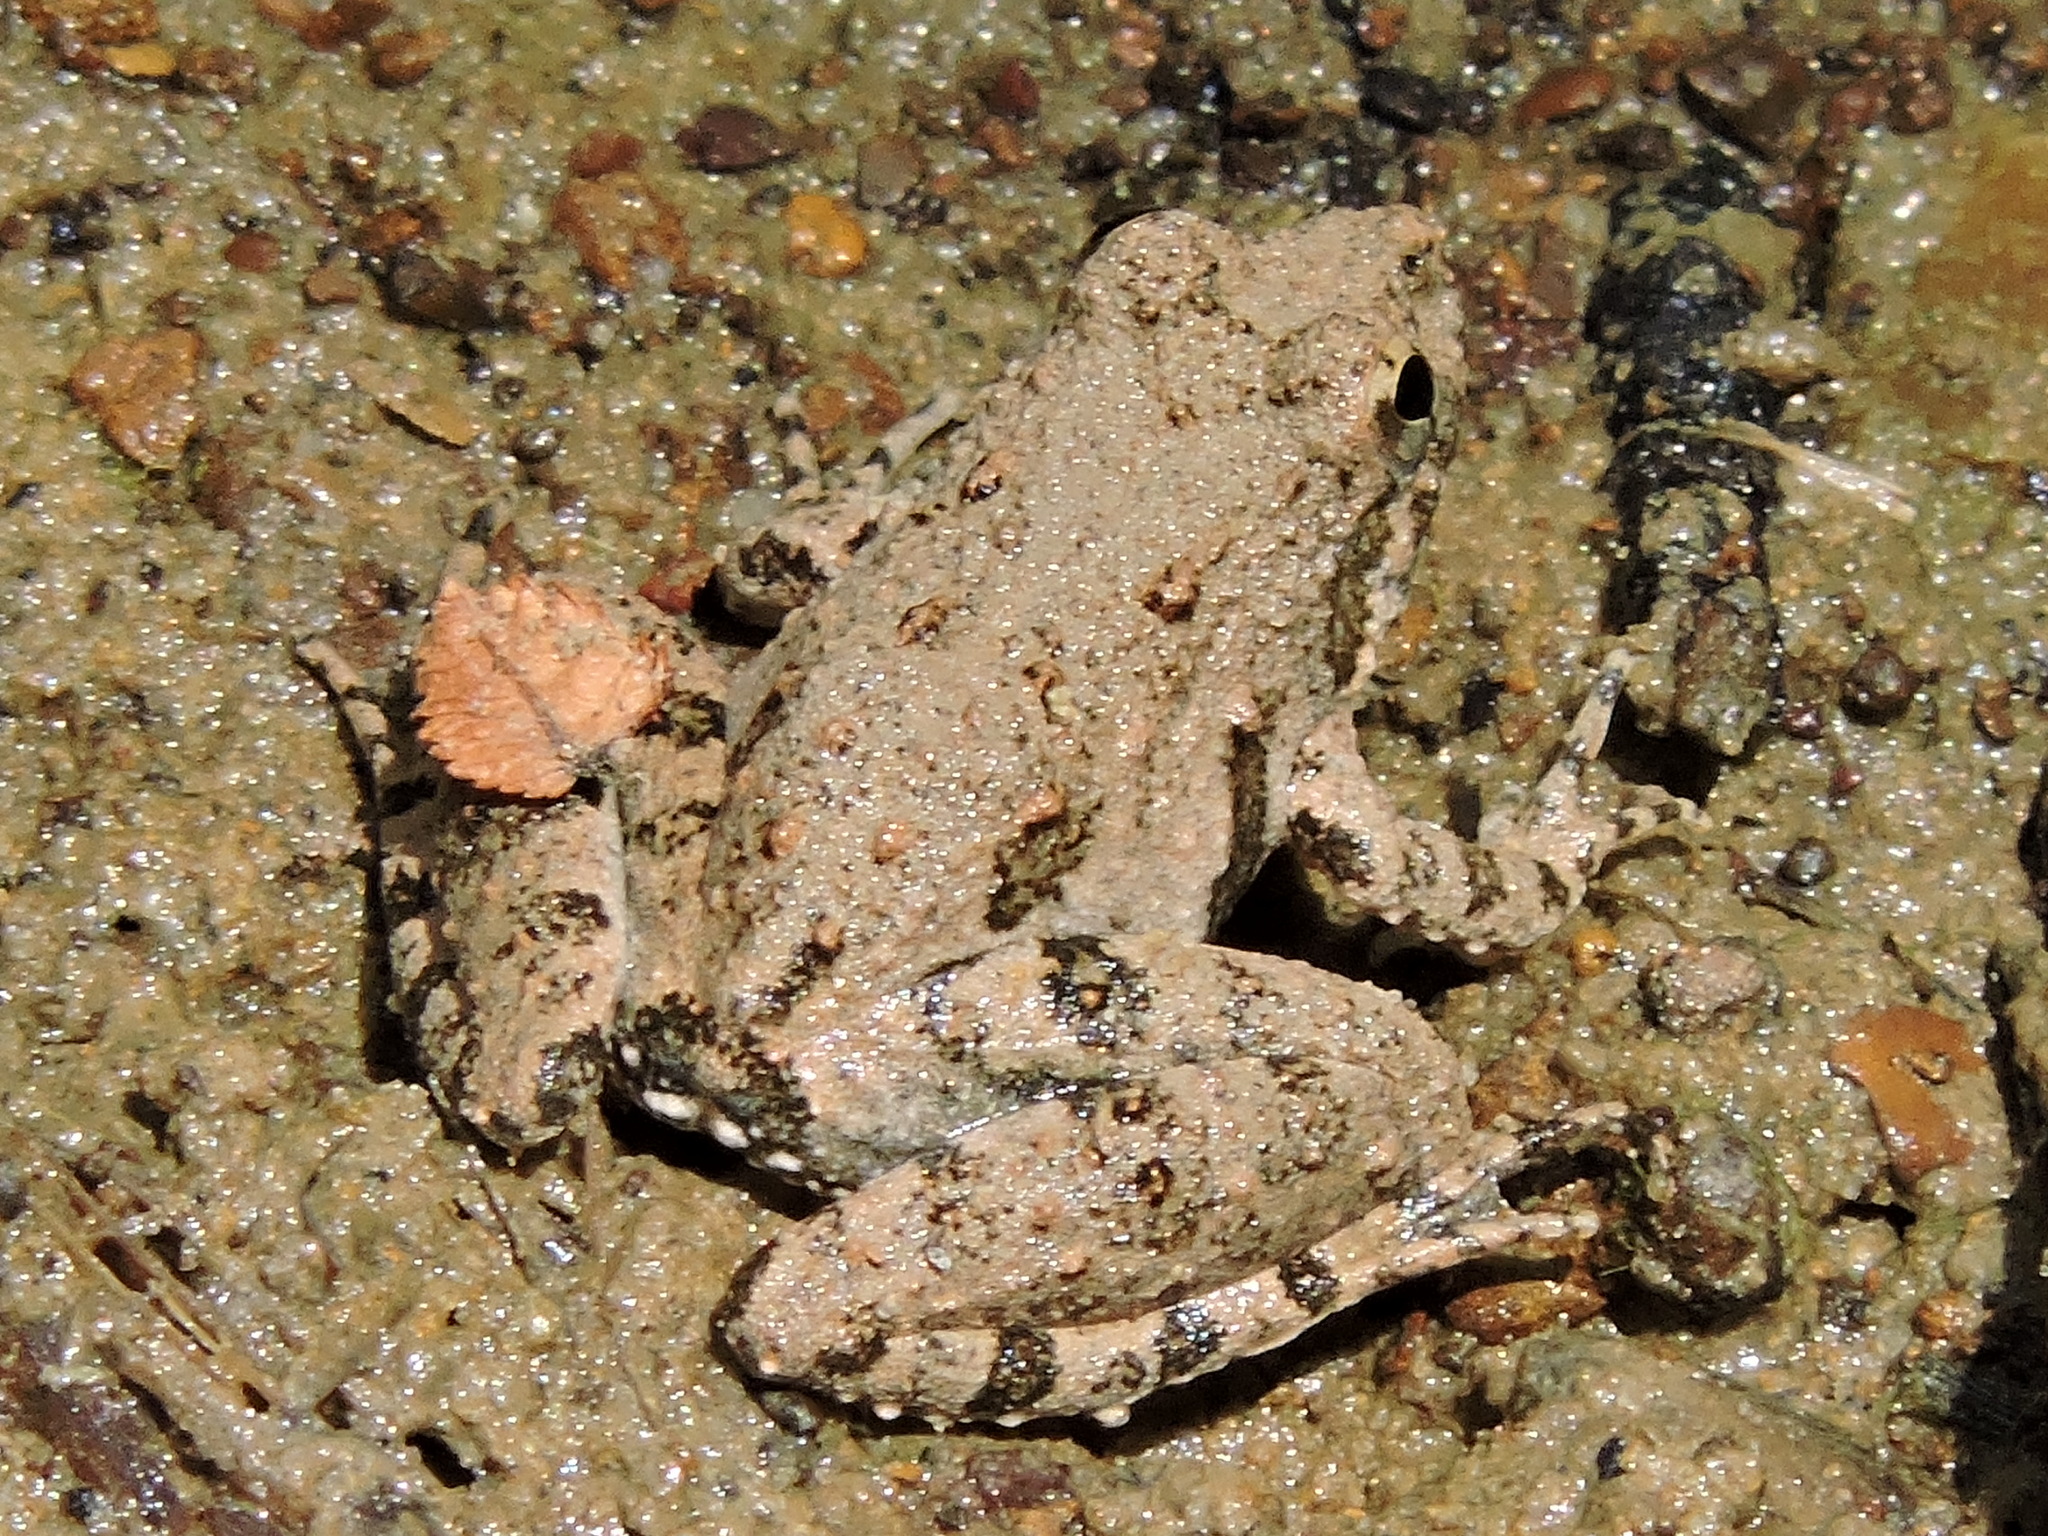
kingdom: Animalia
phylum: Chordata
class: Amphibia
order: Anura
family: Hylidae
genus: Acris
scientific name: Acris blanchardi
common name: Blanchard's cricket frog
